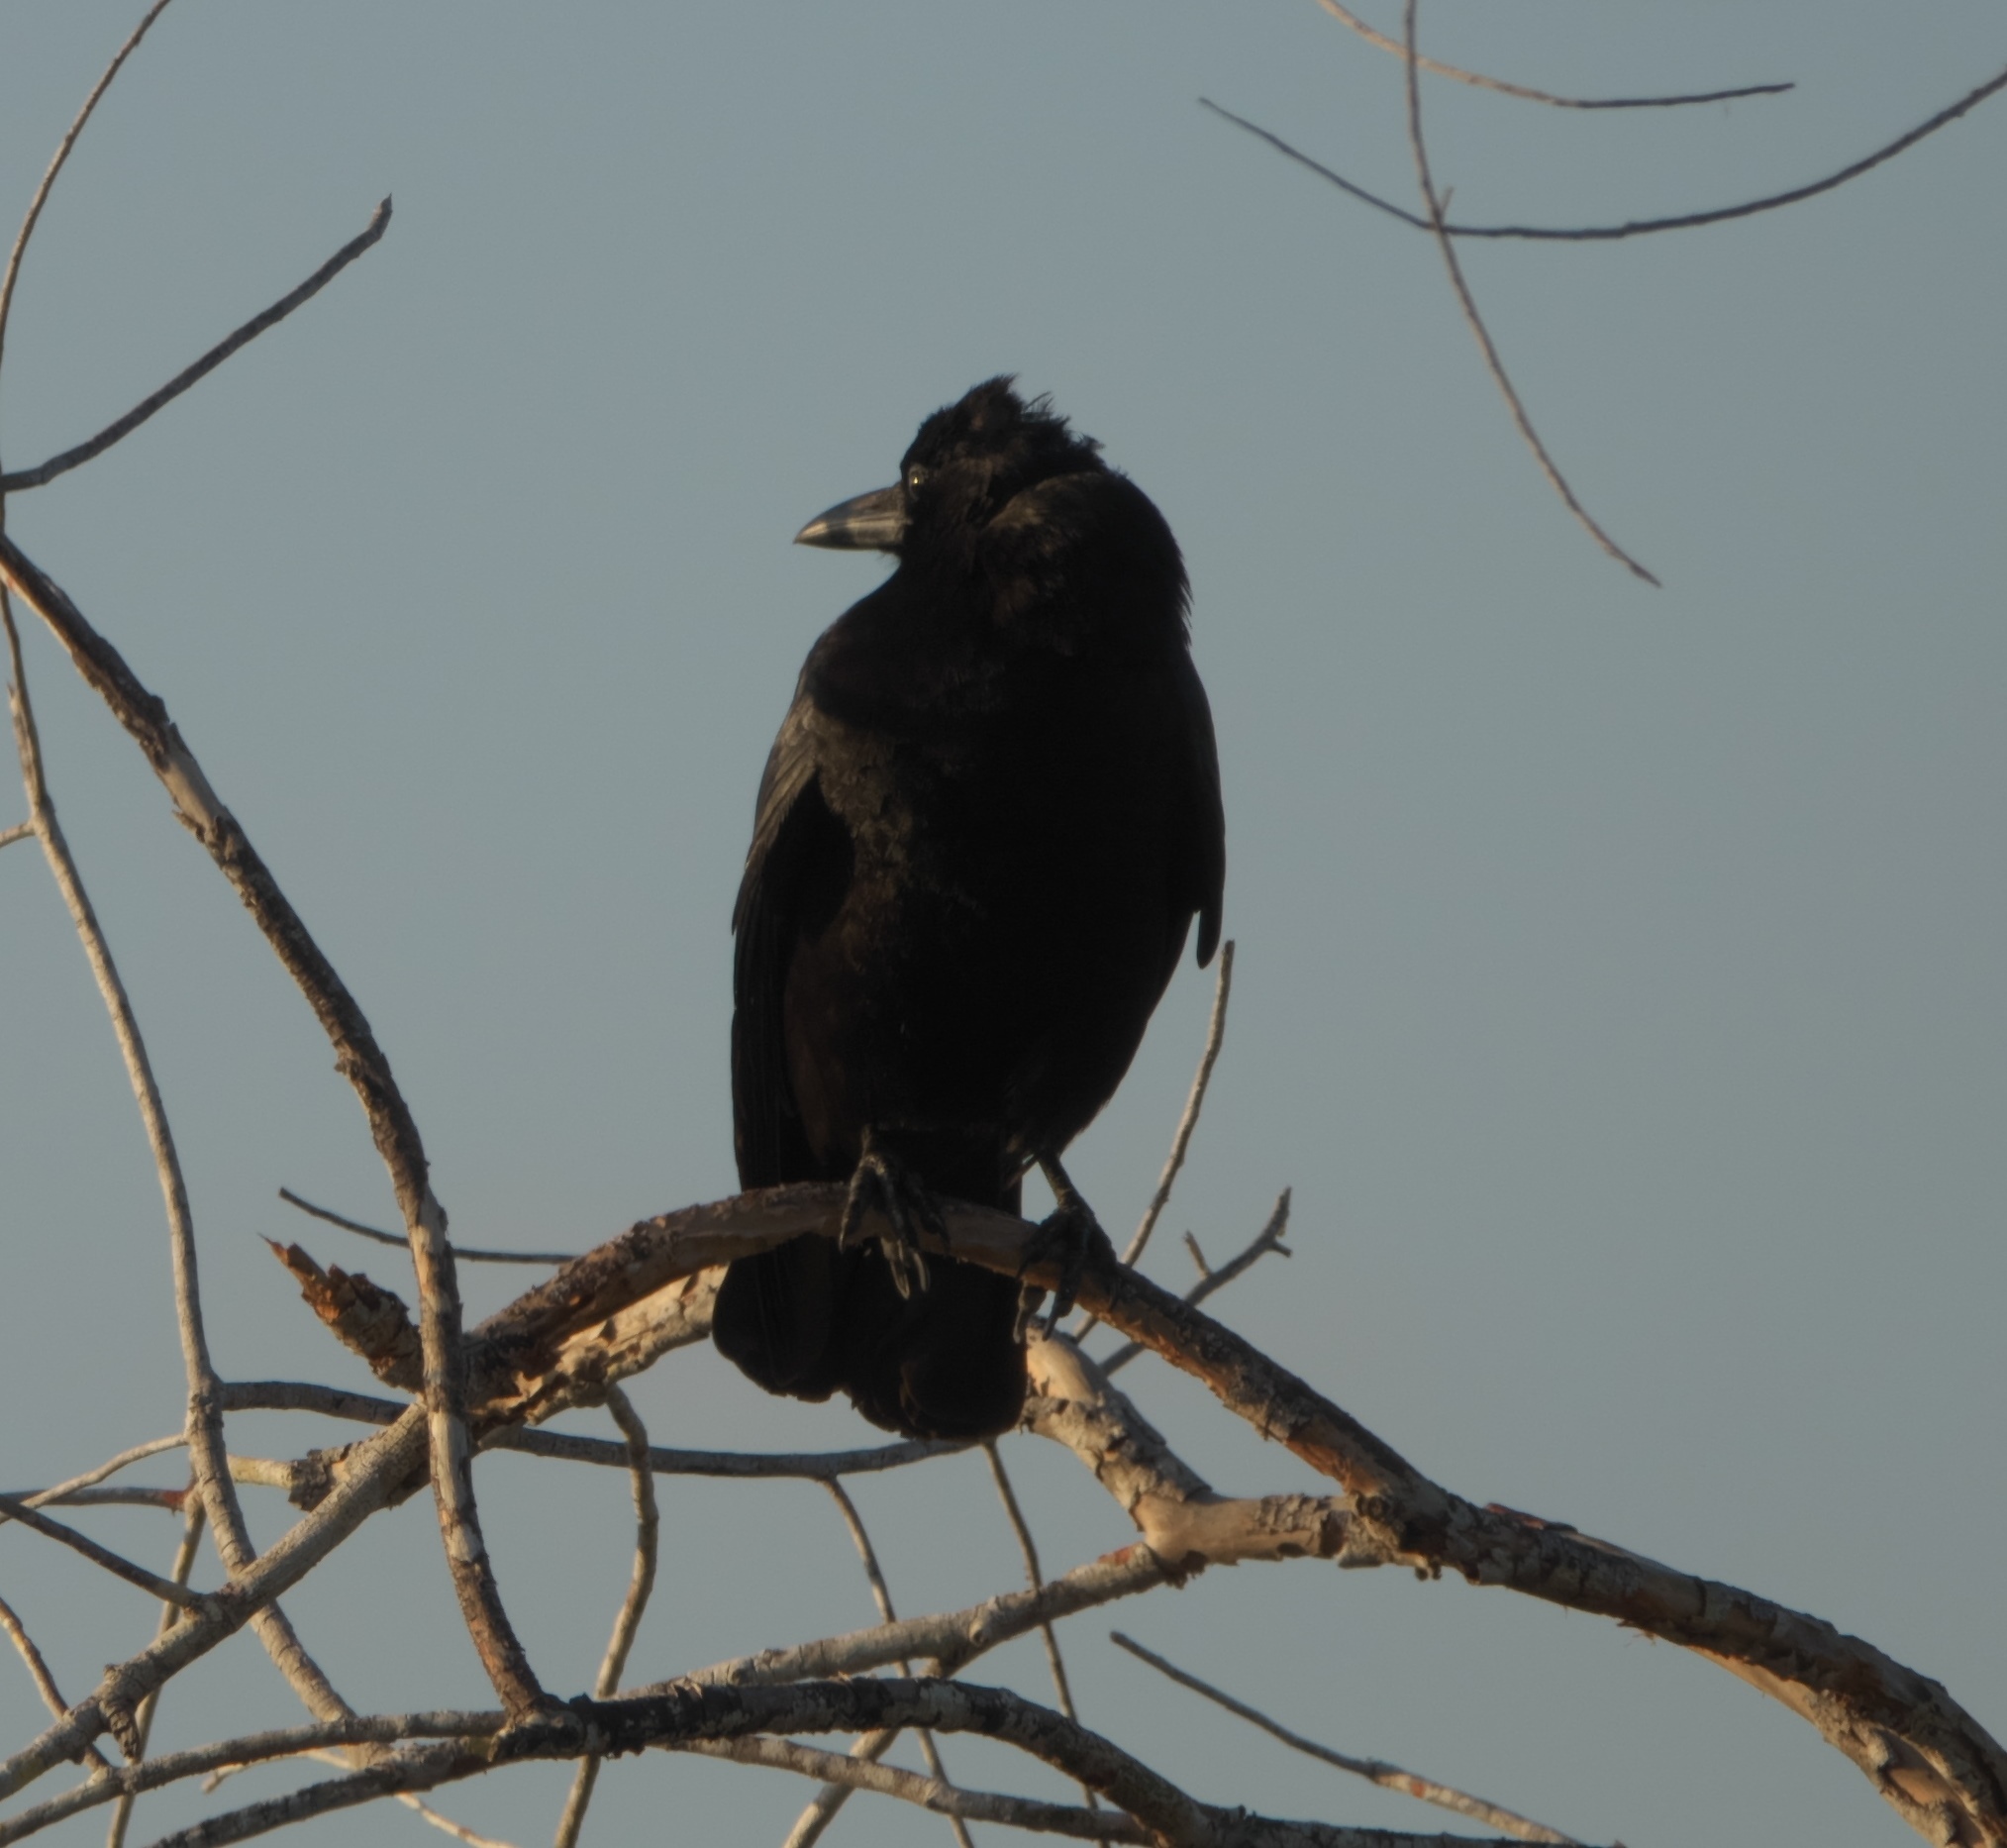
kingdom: Animalia
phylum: Chordata
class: Aves
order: Passeriformes
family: Corvidae
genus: Corvus
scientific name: Corvus brachyrhynchos
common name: American crow
